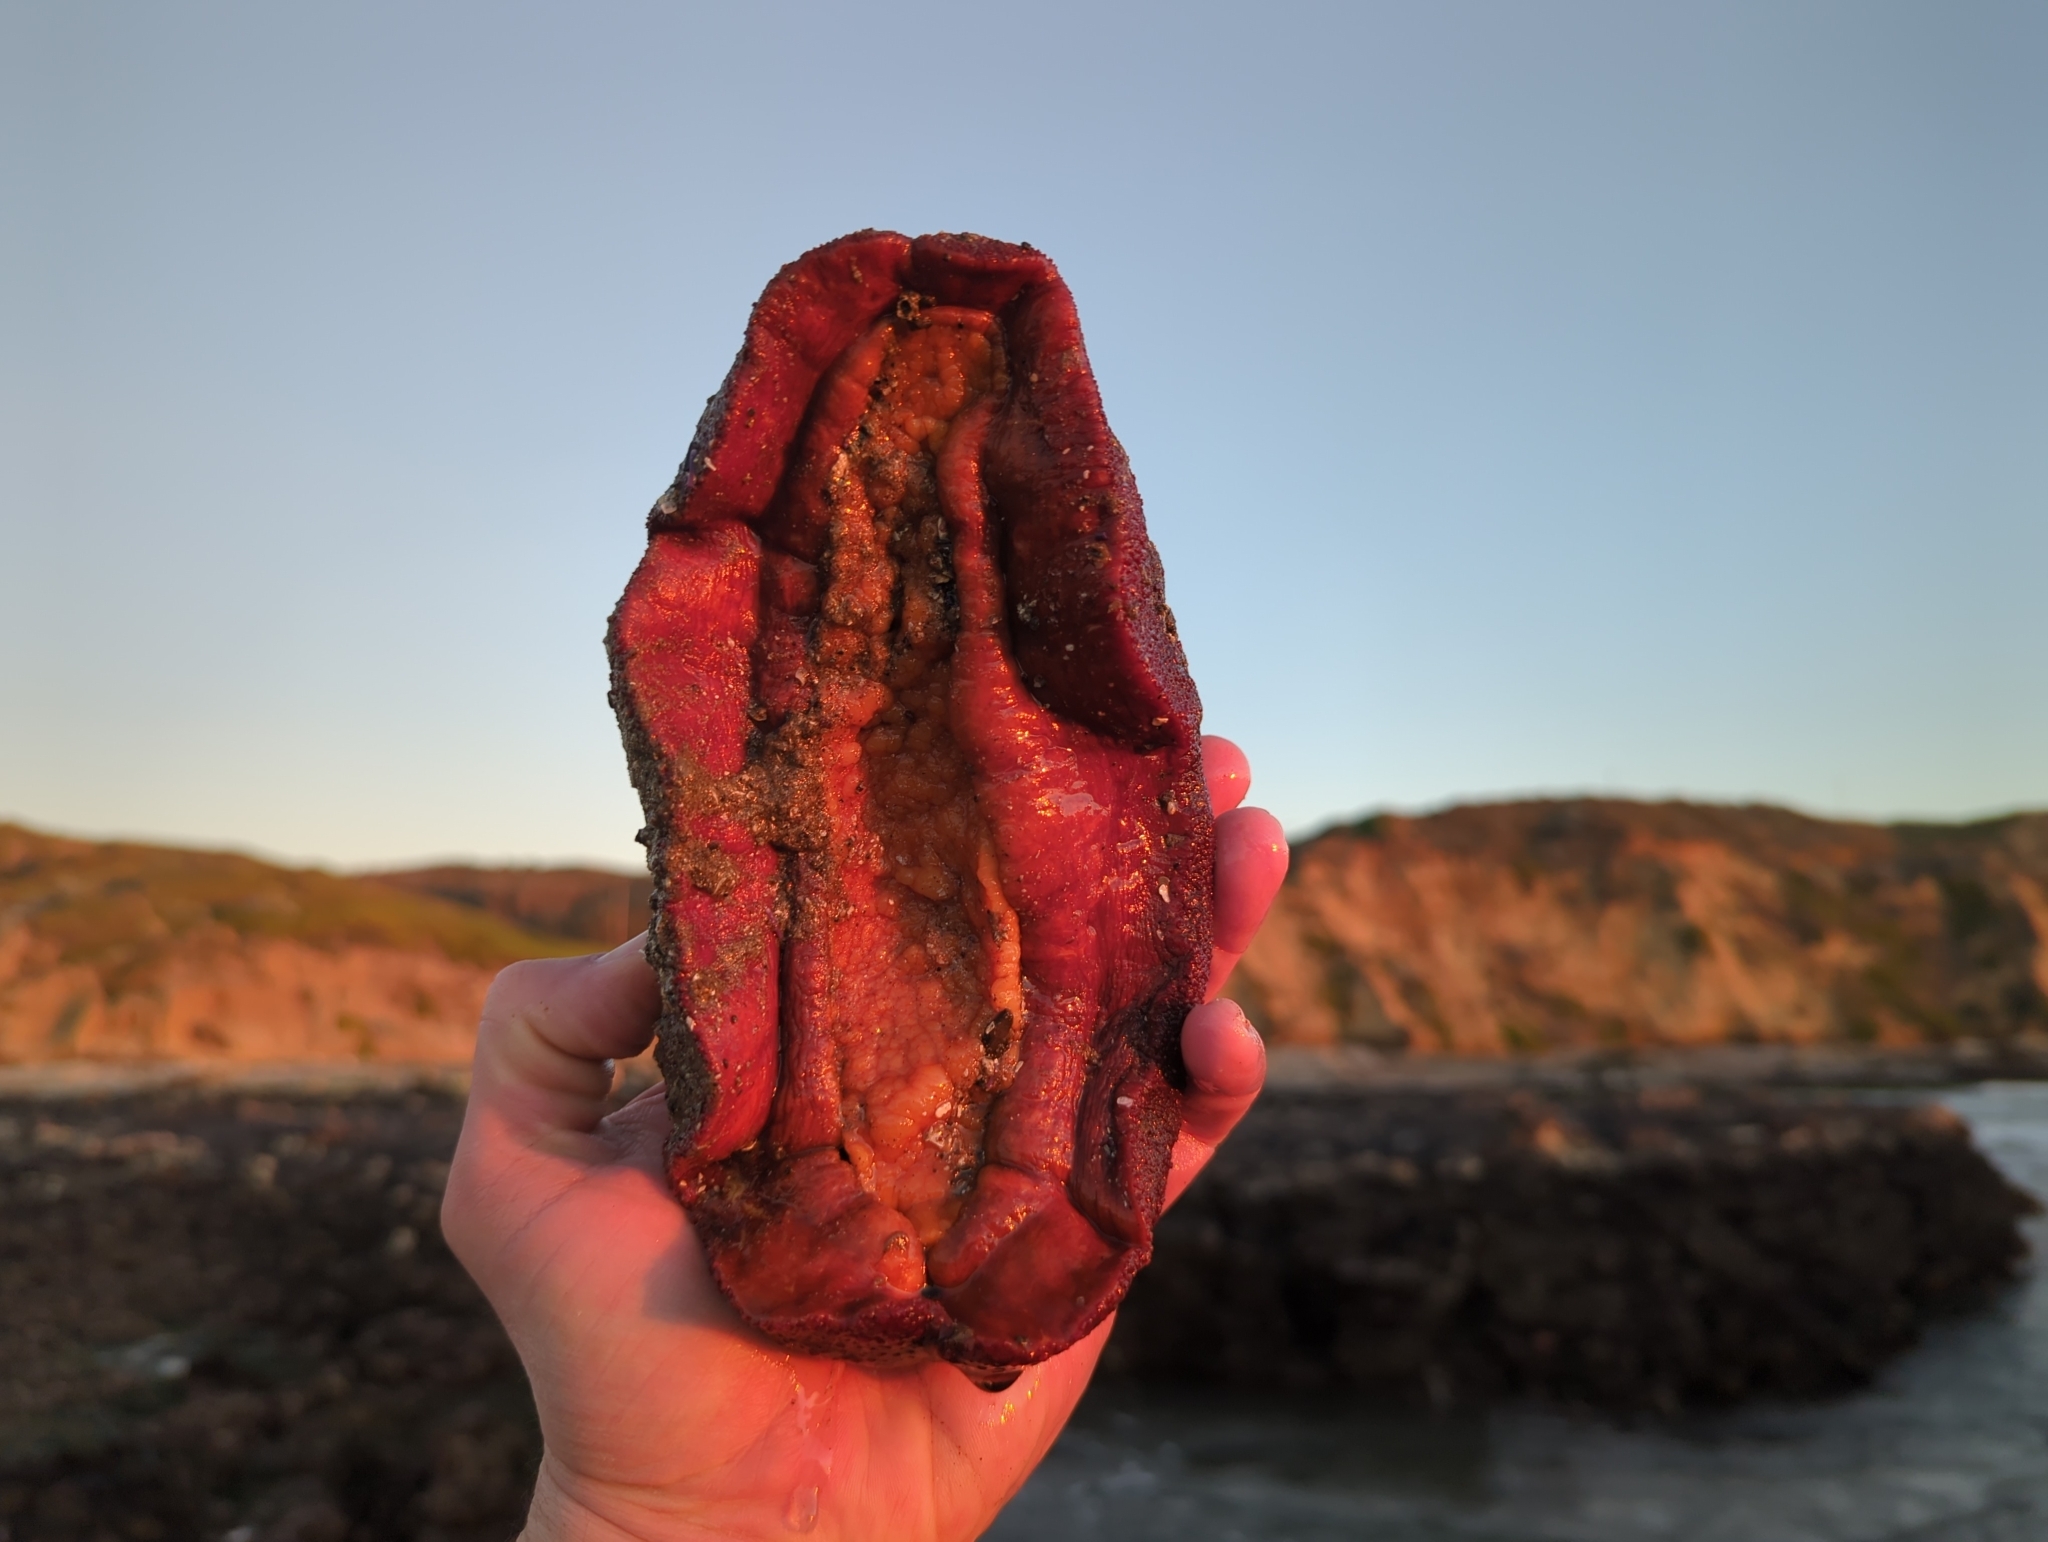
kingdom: Animalia
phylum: Mollusca
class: Polyplacophora
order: Chitonida
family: Acanthochitonidae
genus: Cryptochiton
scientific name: Cryptochiton stelleri
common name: Giant pacific chiton
